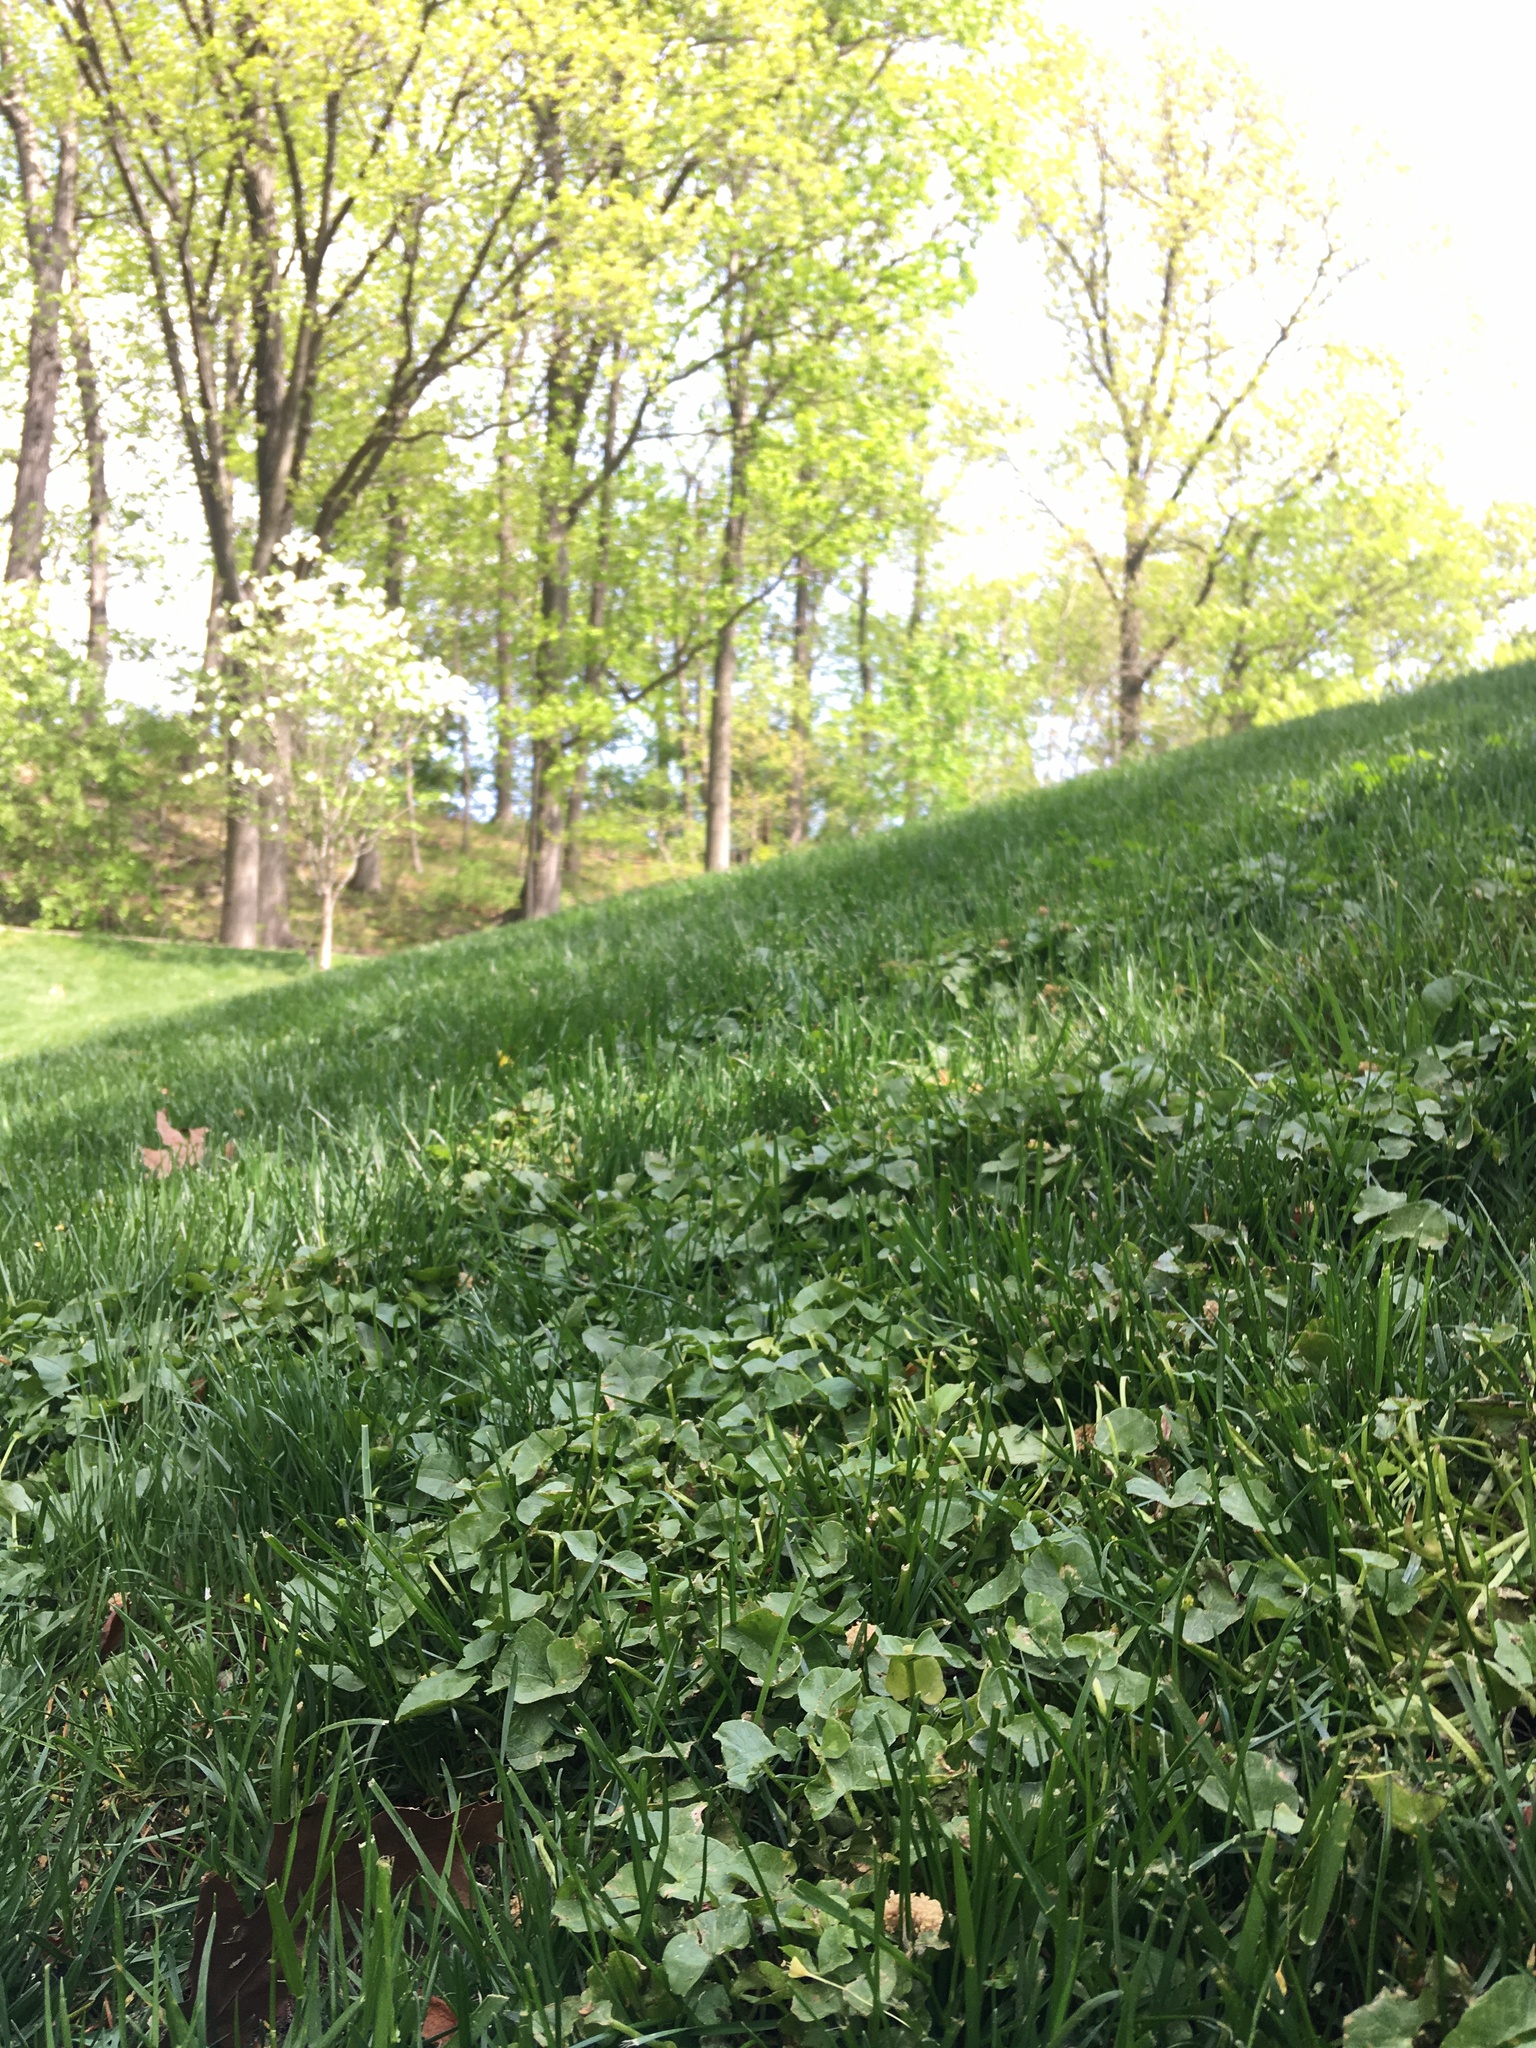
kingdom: Plantae
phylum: Tracheophyta
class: Magnoliopsida
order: Ranunculales
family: Ranunculaceae
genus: Ficaria
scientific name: Ficaria verna
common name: Lesser celandine
